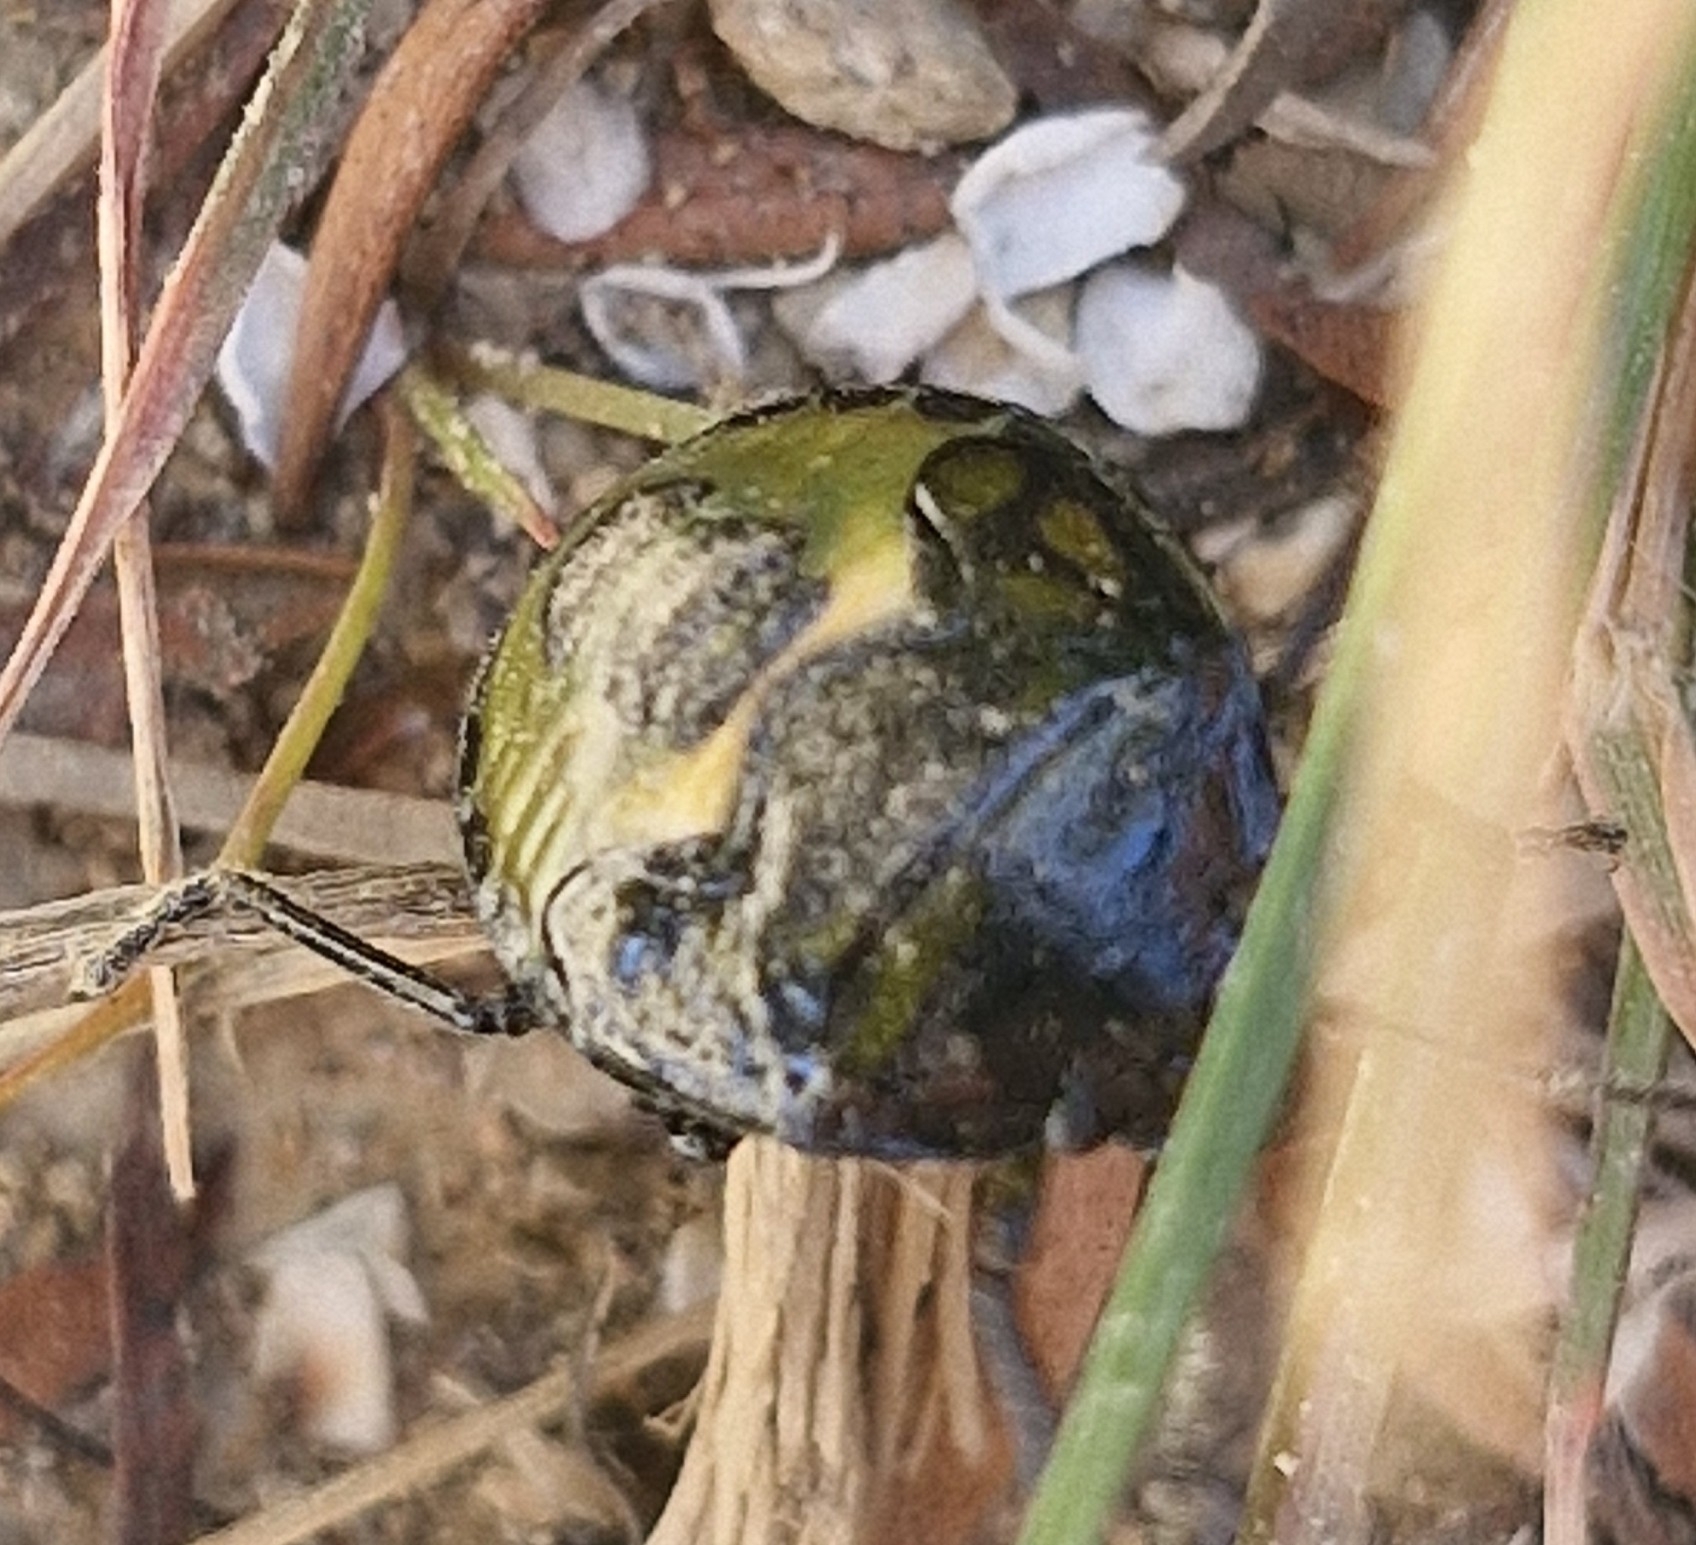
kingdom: Animalia
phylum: Arthropoda
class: Insecta
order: Hemiptera
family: Pentatomidae
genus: Glaucias
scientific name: Glaucias amyota
